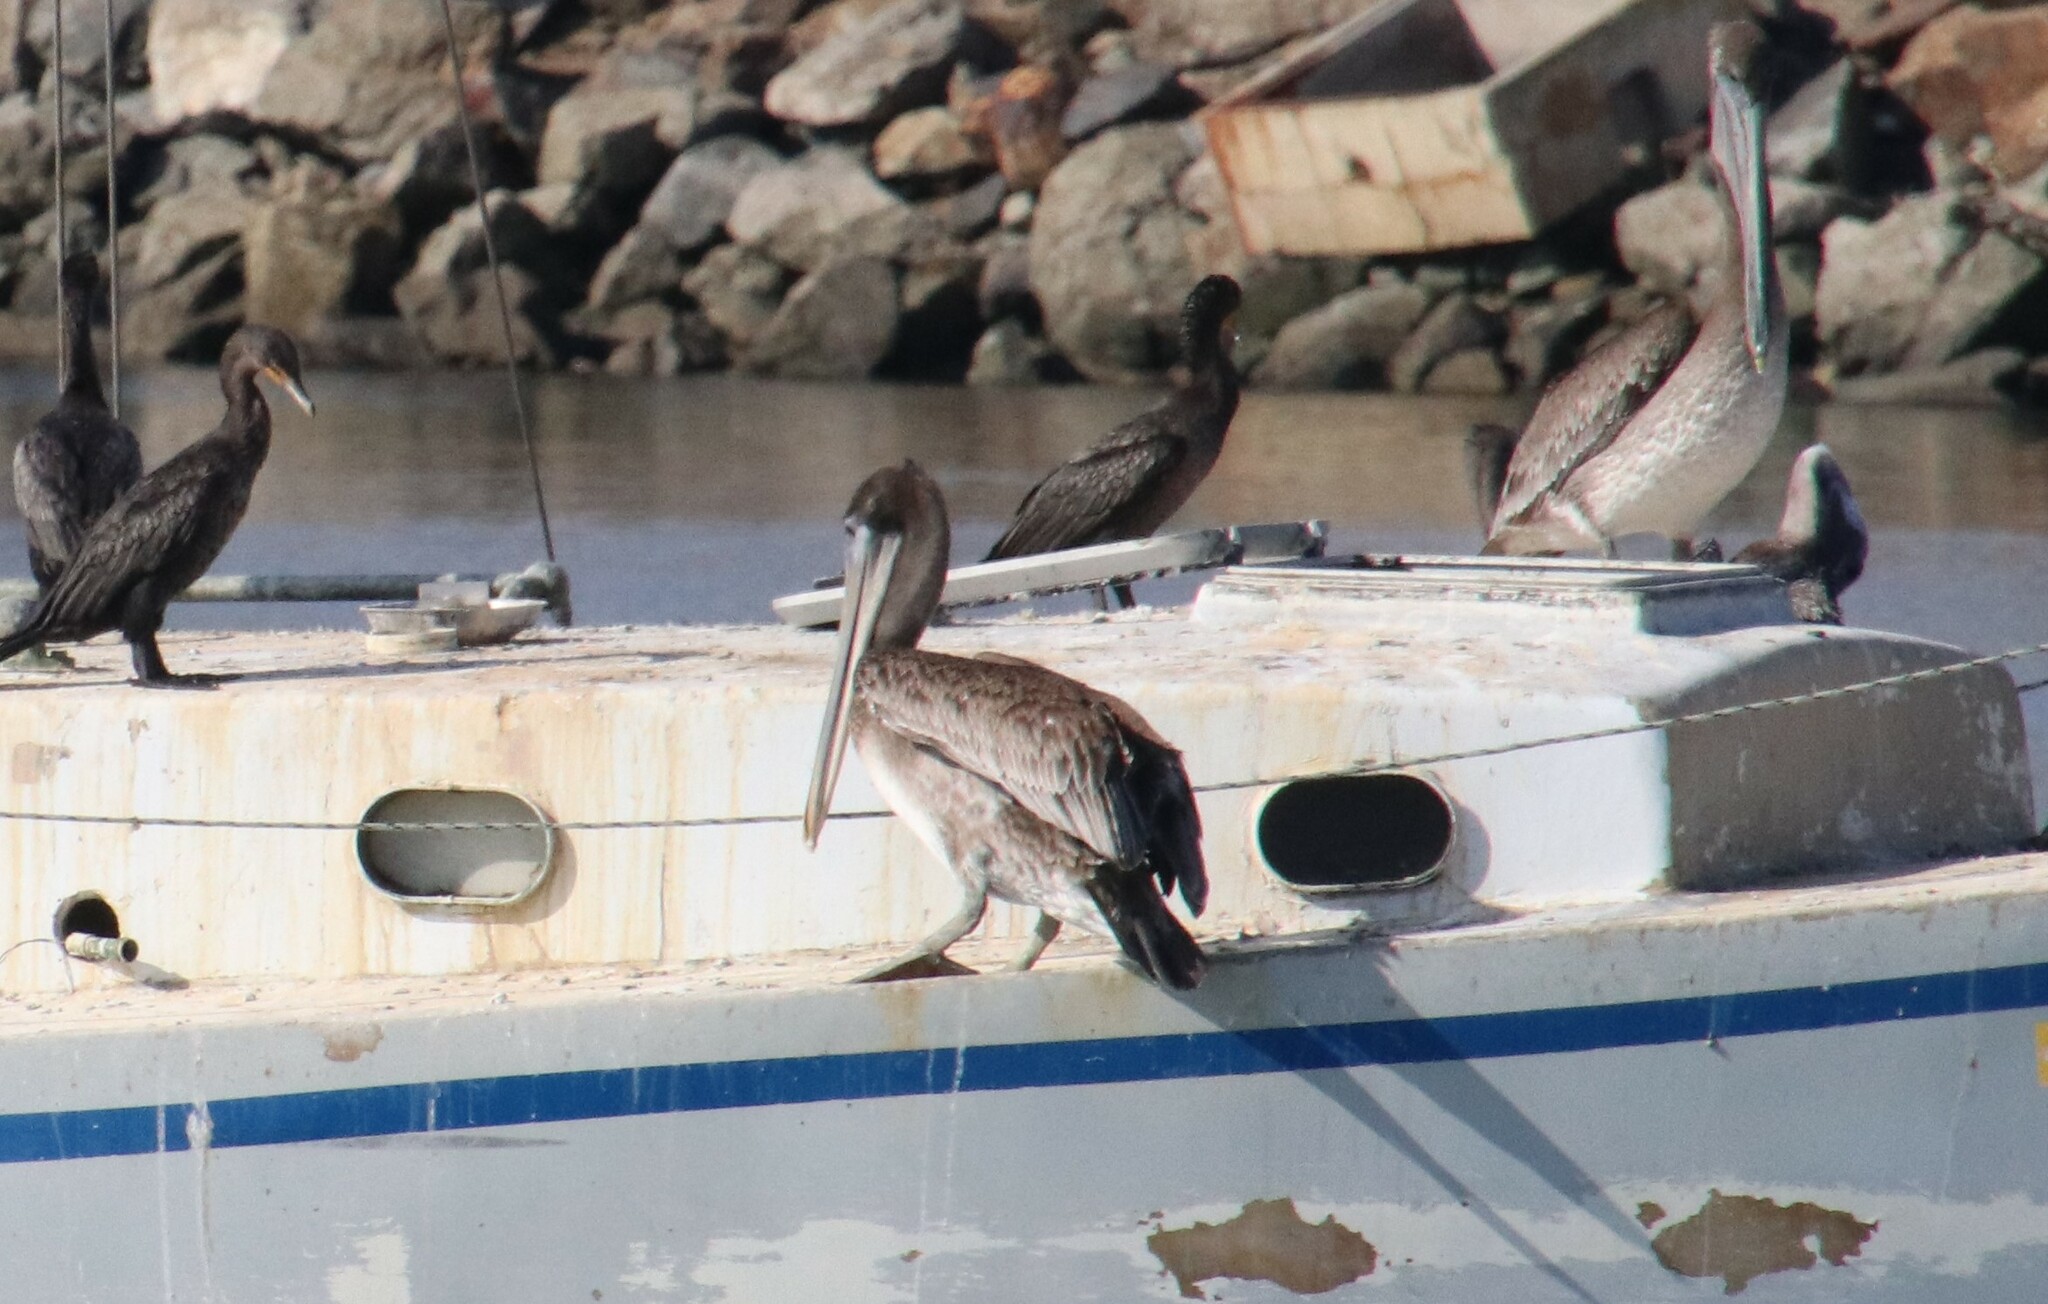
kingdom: Animalia
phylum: Chordata
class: Aves
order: Pelecaniformes
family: Pelecanidae
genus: Pelecanus
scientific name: Pelecanus occidentalis
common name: Brown pelican
